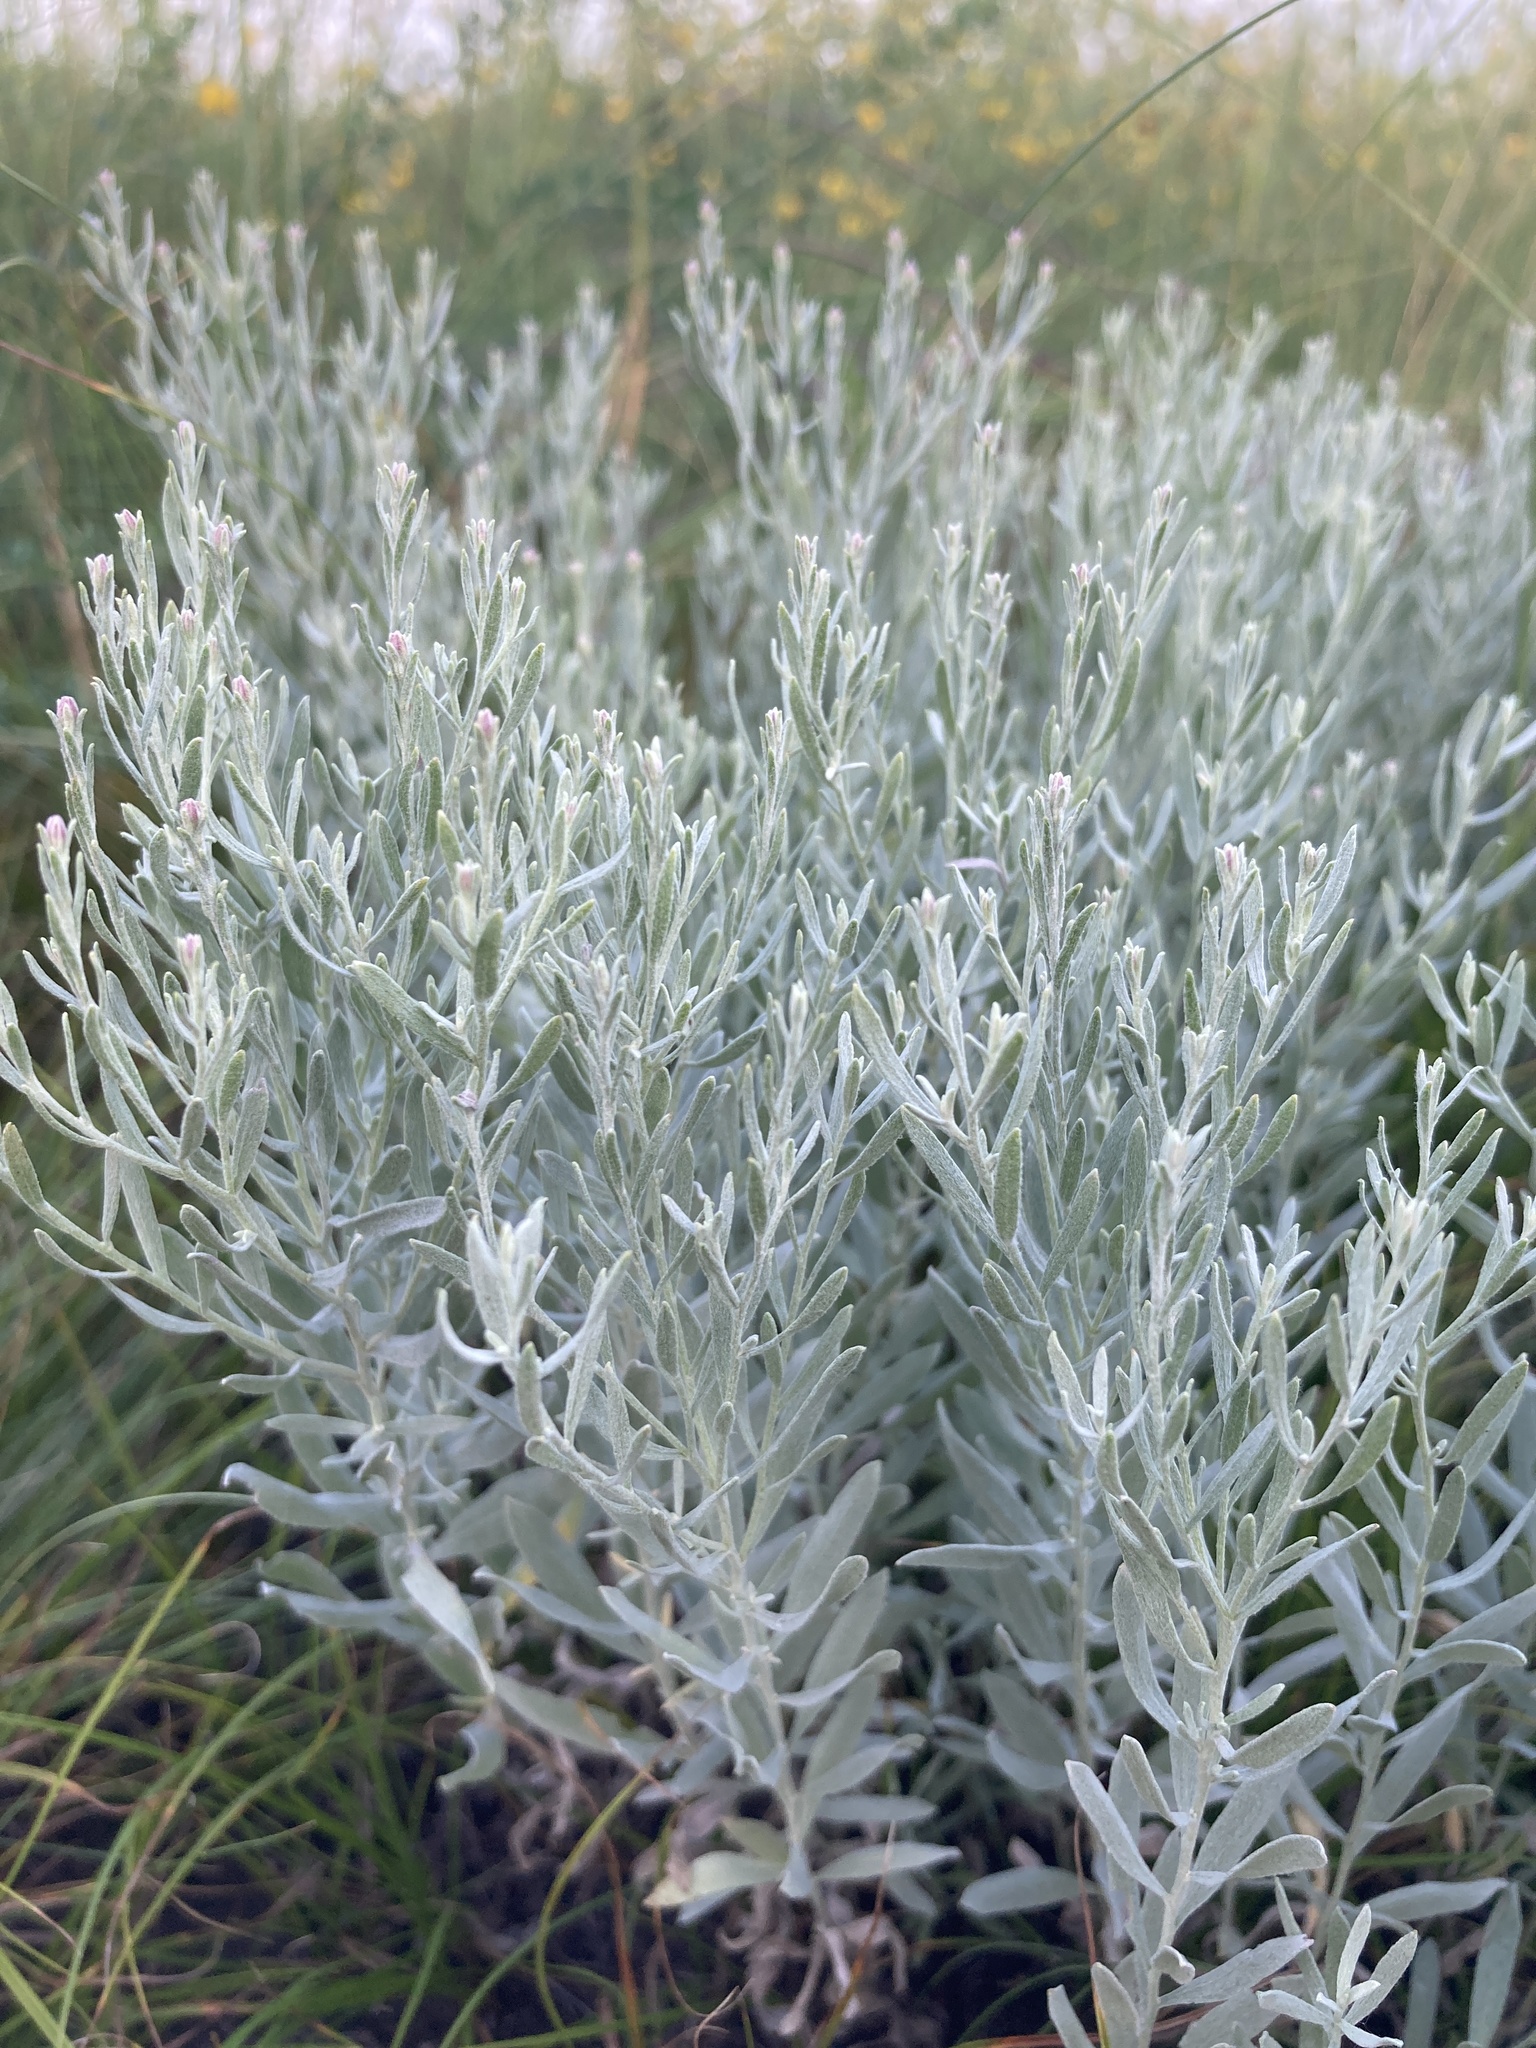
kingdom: Plantae
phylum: Tracheophyta
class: Magnoliopsida
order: Asterales
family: Asteraceae
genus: Galatella
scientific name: Galatella villosa
